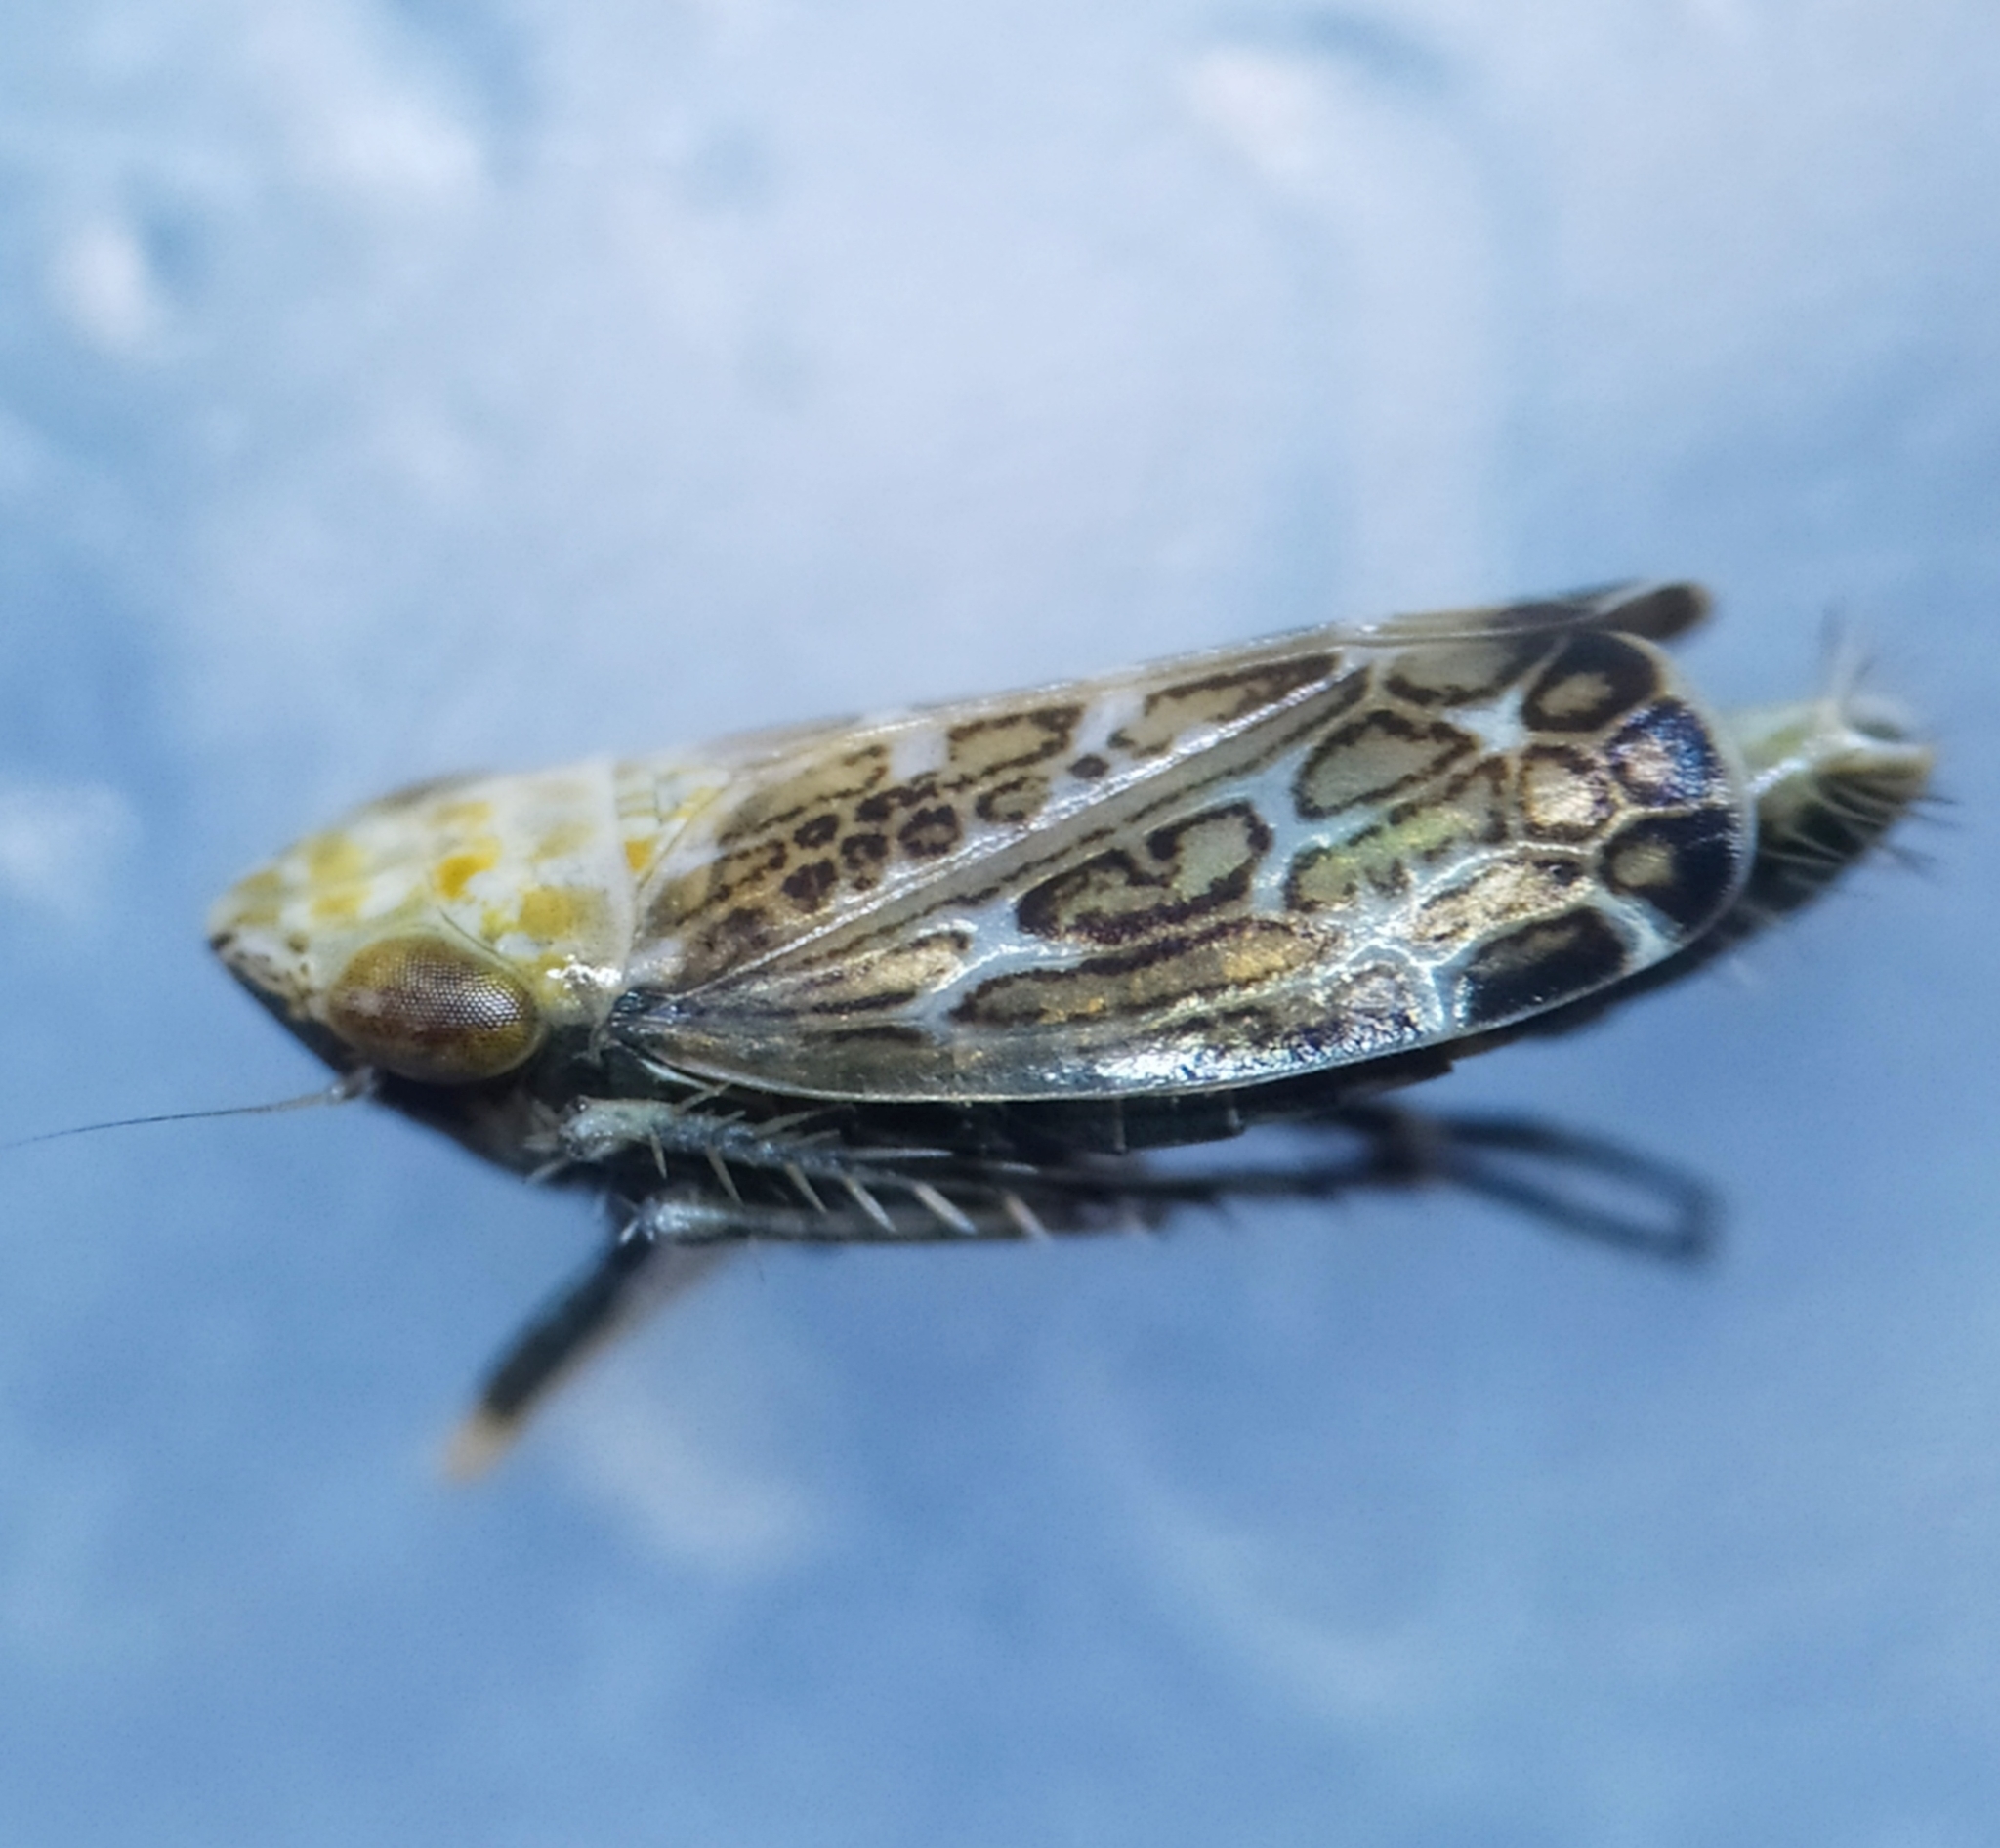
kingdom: Animalia
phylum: Arthropoda
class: Insecta
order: Hemiptera
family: Cicadellidae
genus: Errastunus
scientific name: Errastunus ocellaris
